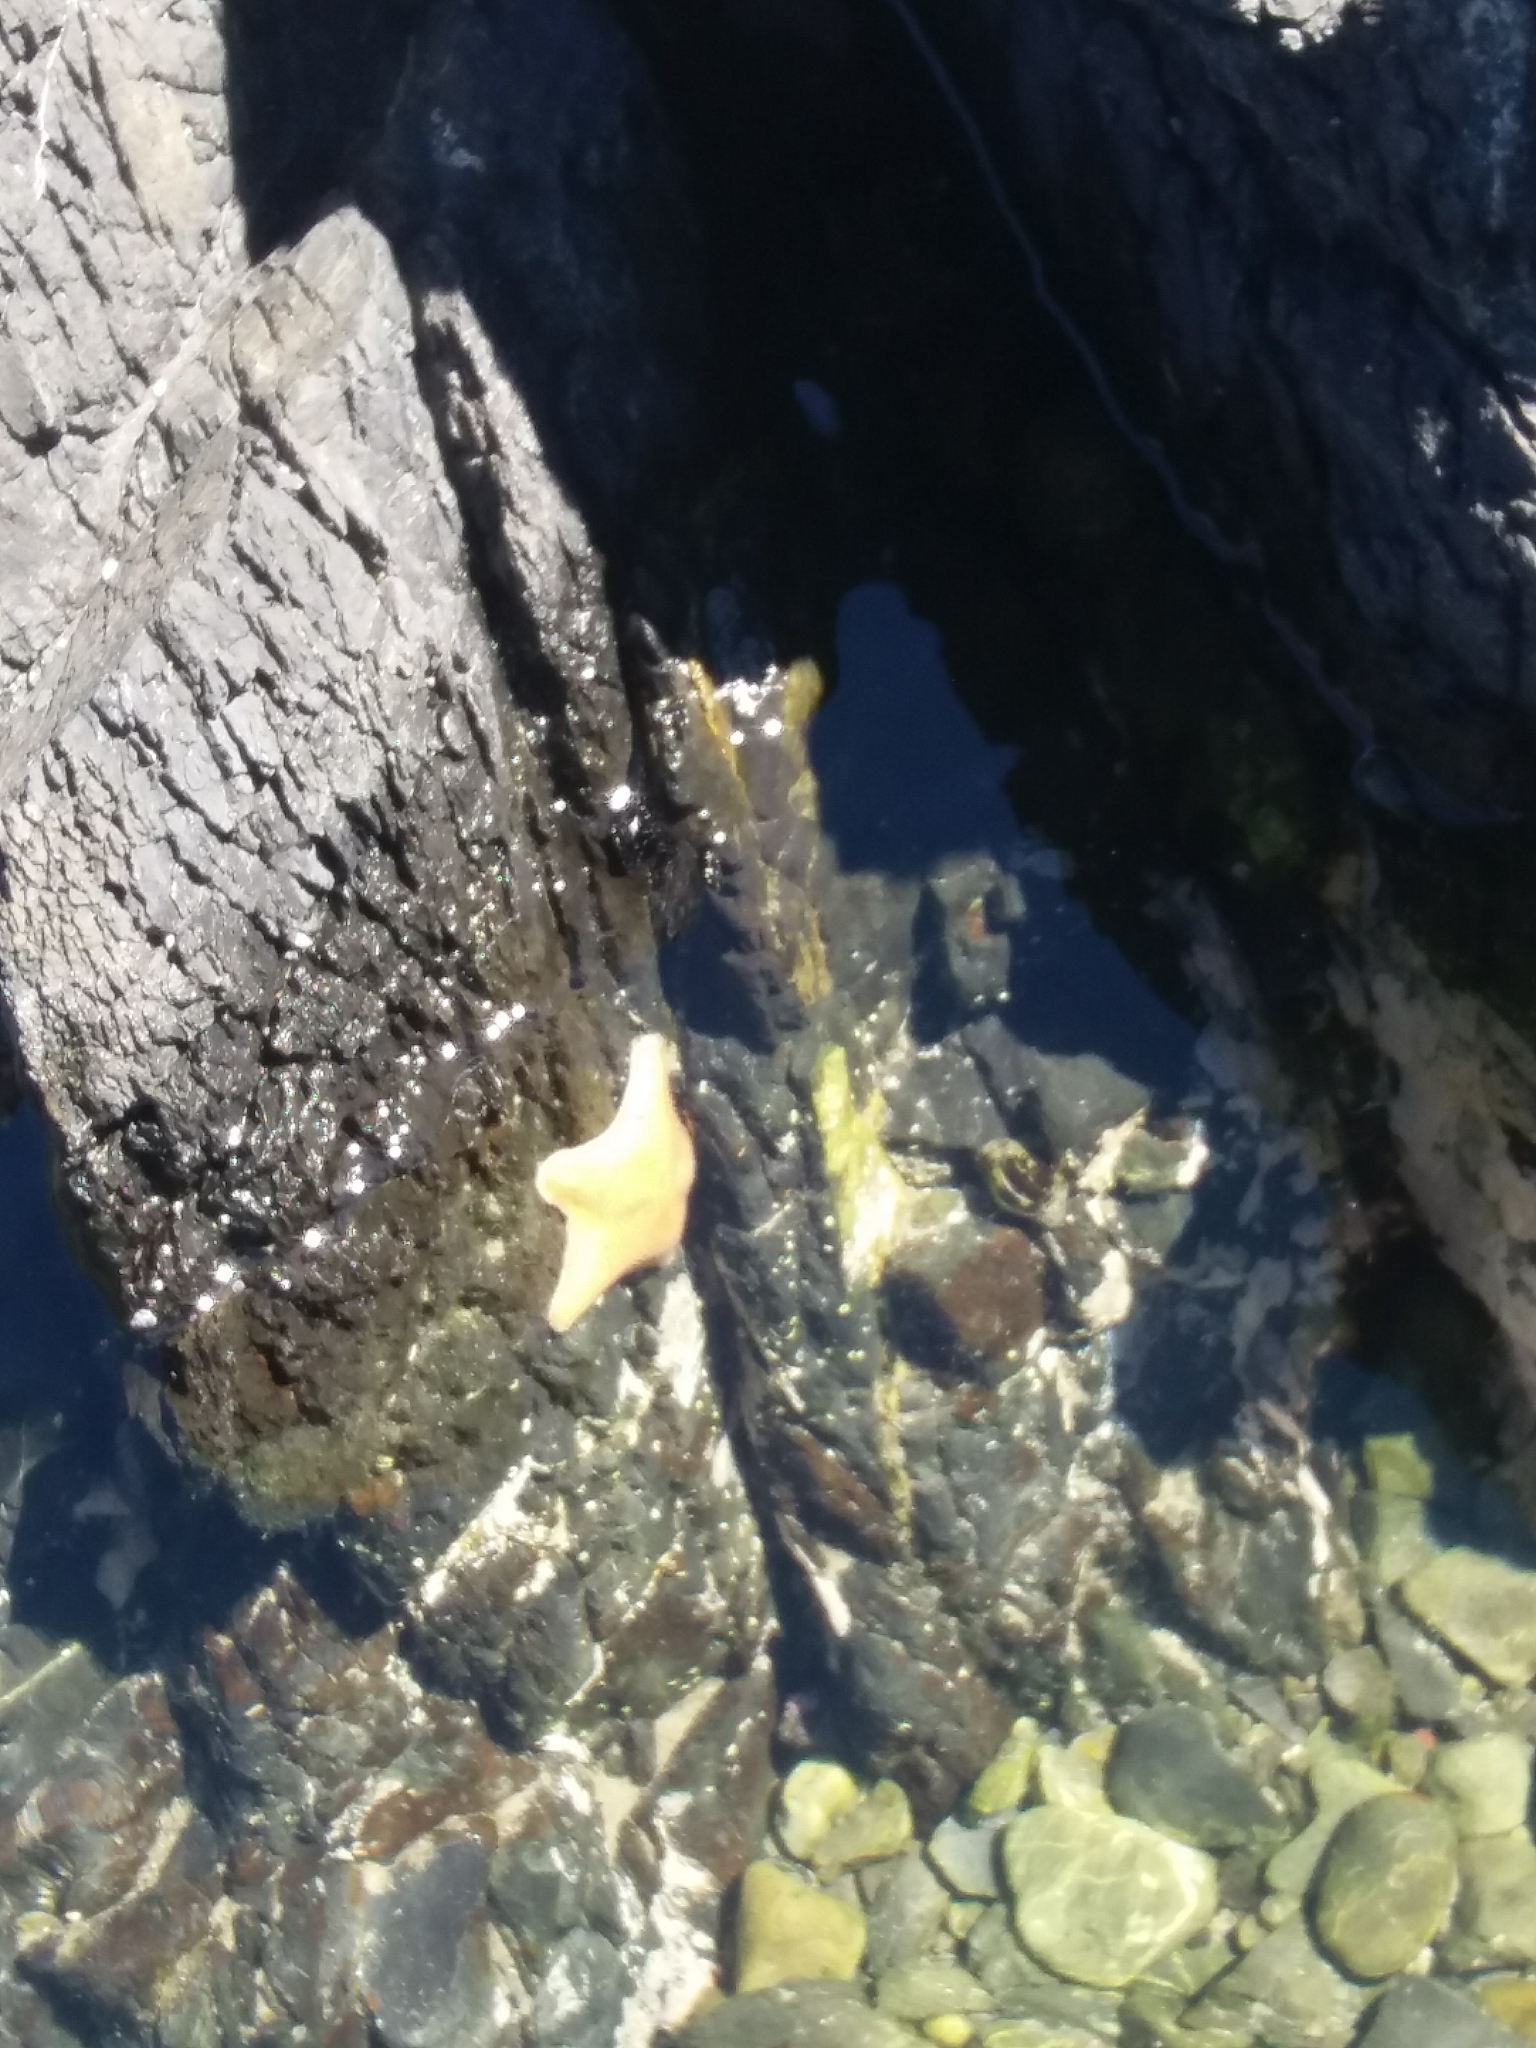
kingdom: Animalia
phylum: Echinodermata
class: Asteroidea
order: Valvatida
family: Asterinidae
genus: Patiriella
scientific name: Patiriella regularis
